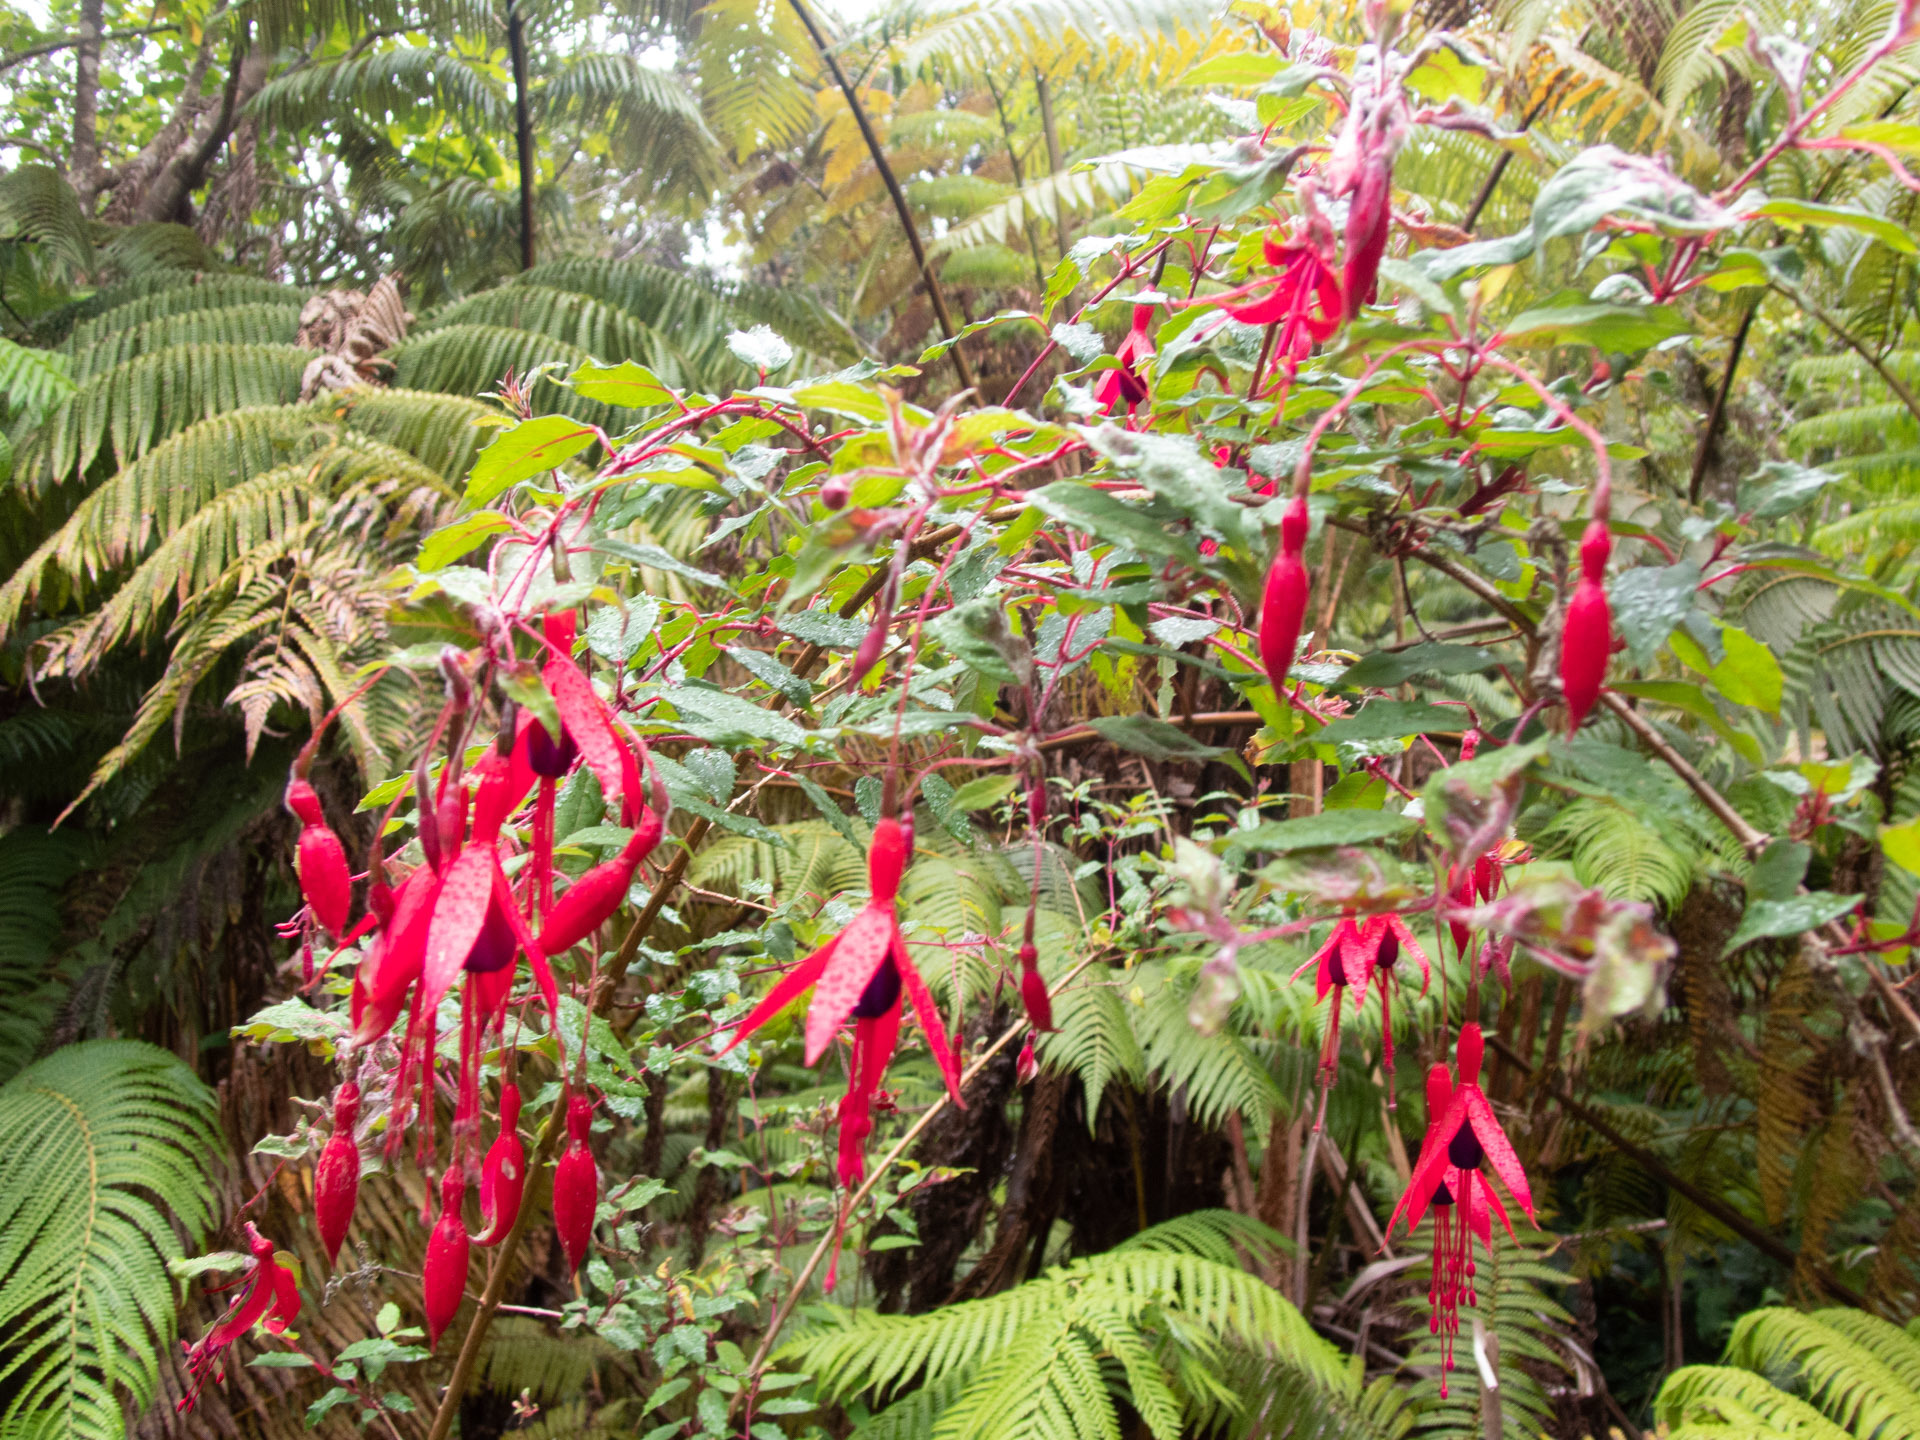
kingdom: Plantae
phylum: Tracheophyta
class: Magnoliopsida
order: Myrtales
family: Onagraceae
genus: Fuchsia
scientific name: Fuchsia magellanica
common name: Hardy fuchsia
